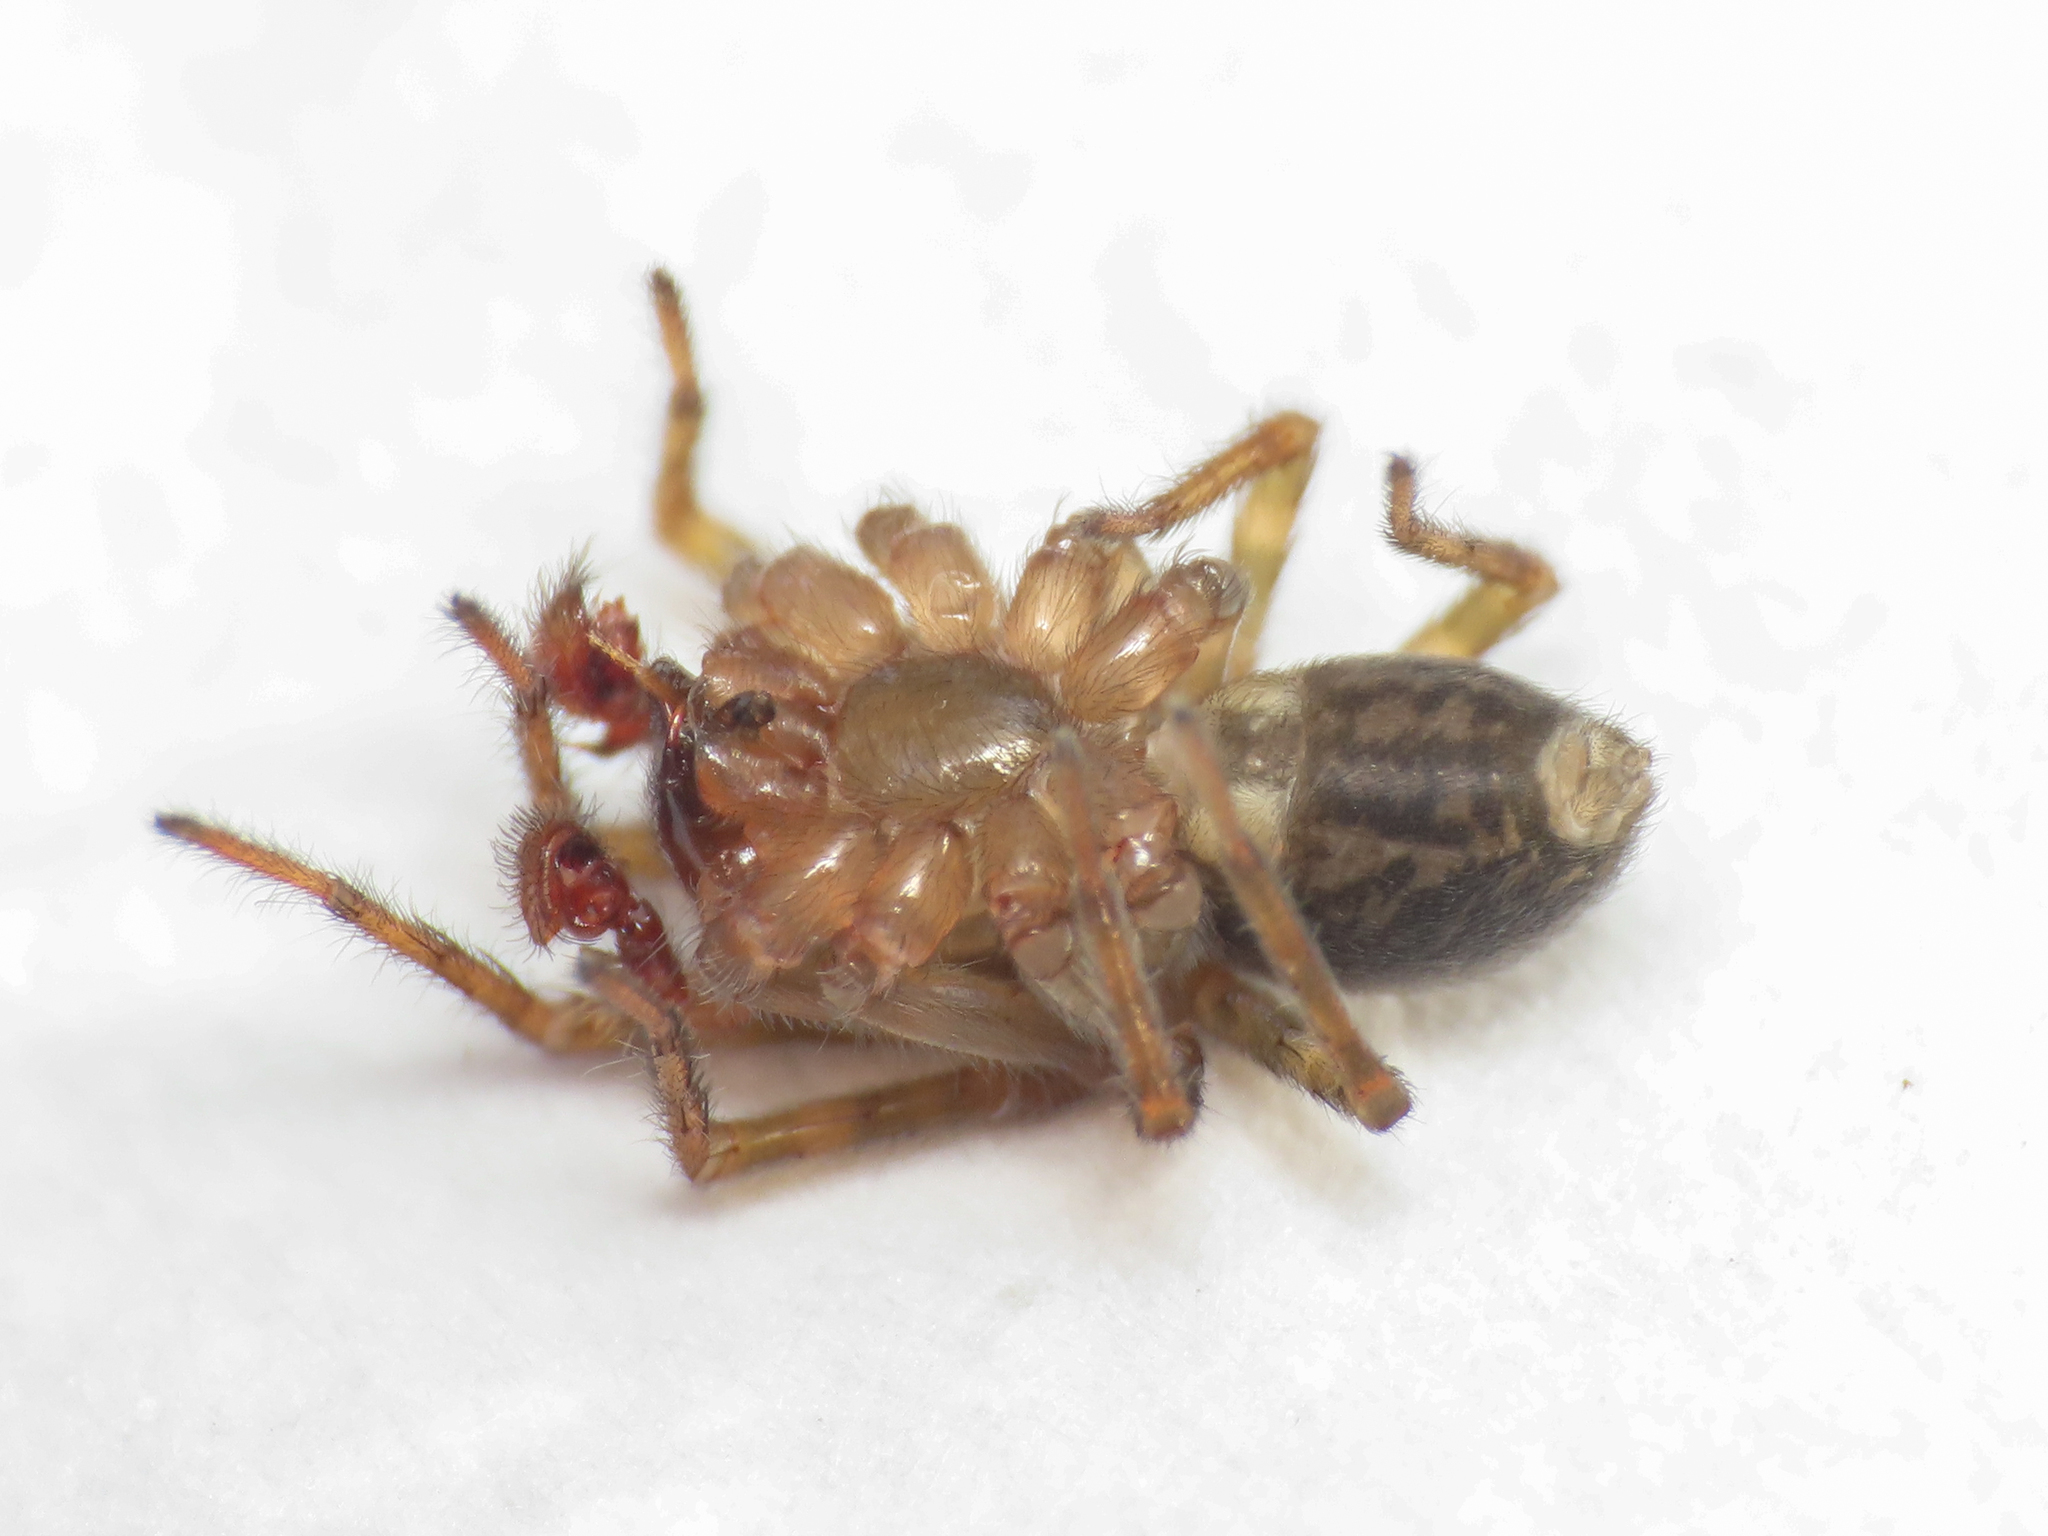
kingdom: Animalia
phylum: Arthropoda
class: Arachnida
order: Araneae
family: Amaurobiidae
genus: Amaurobius
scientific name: Amaurobius erberi
